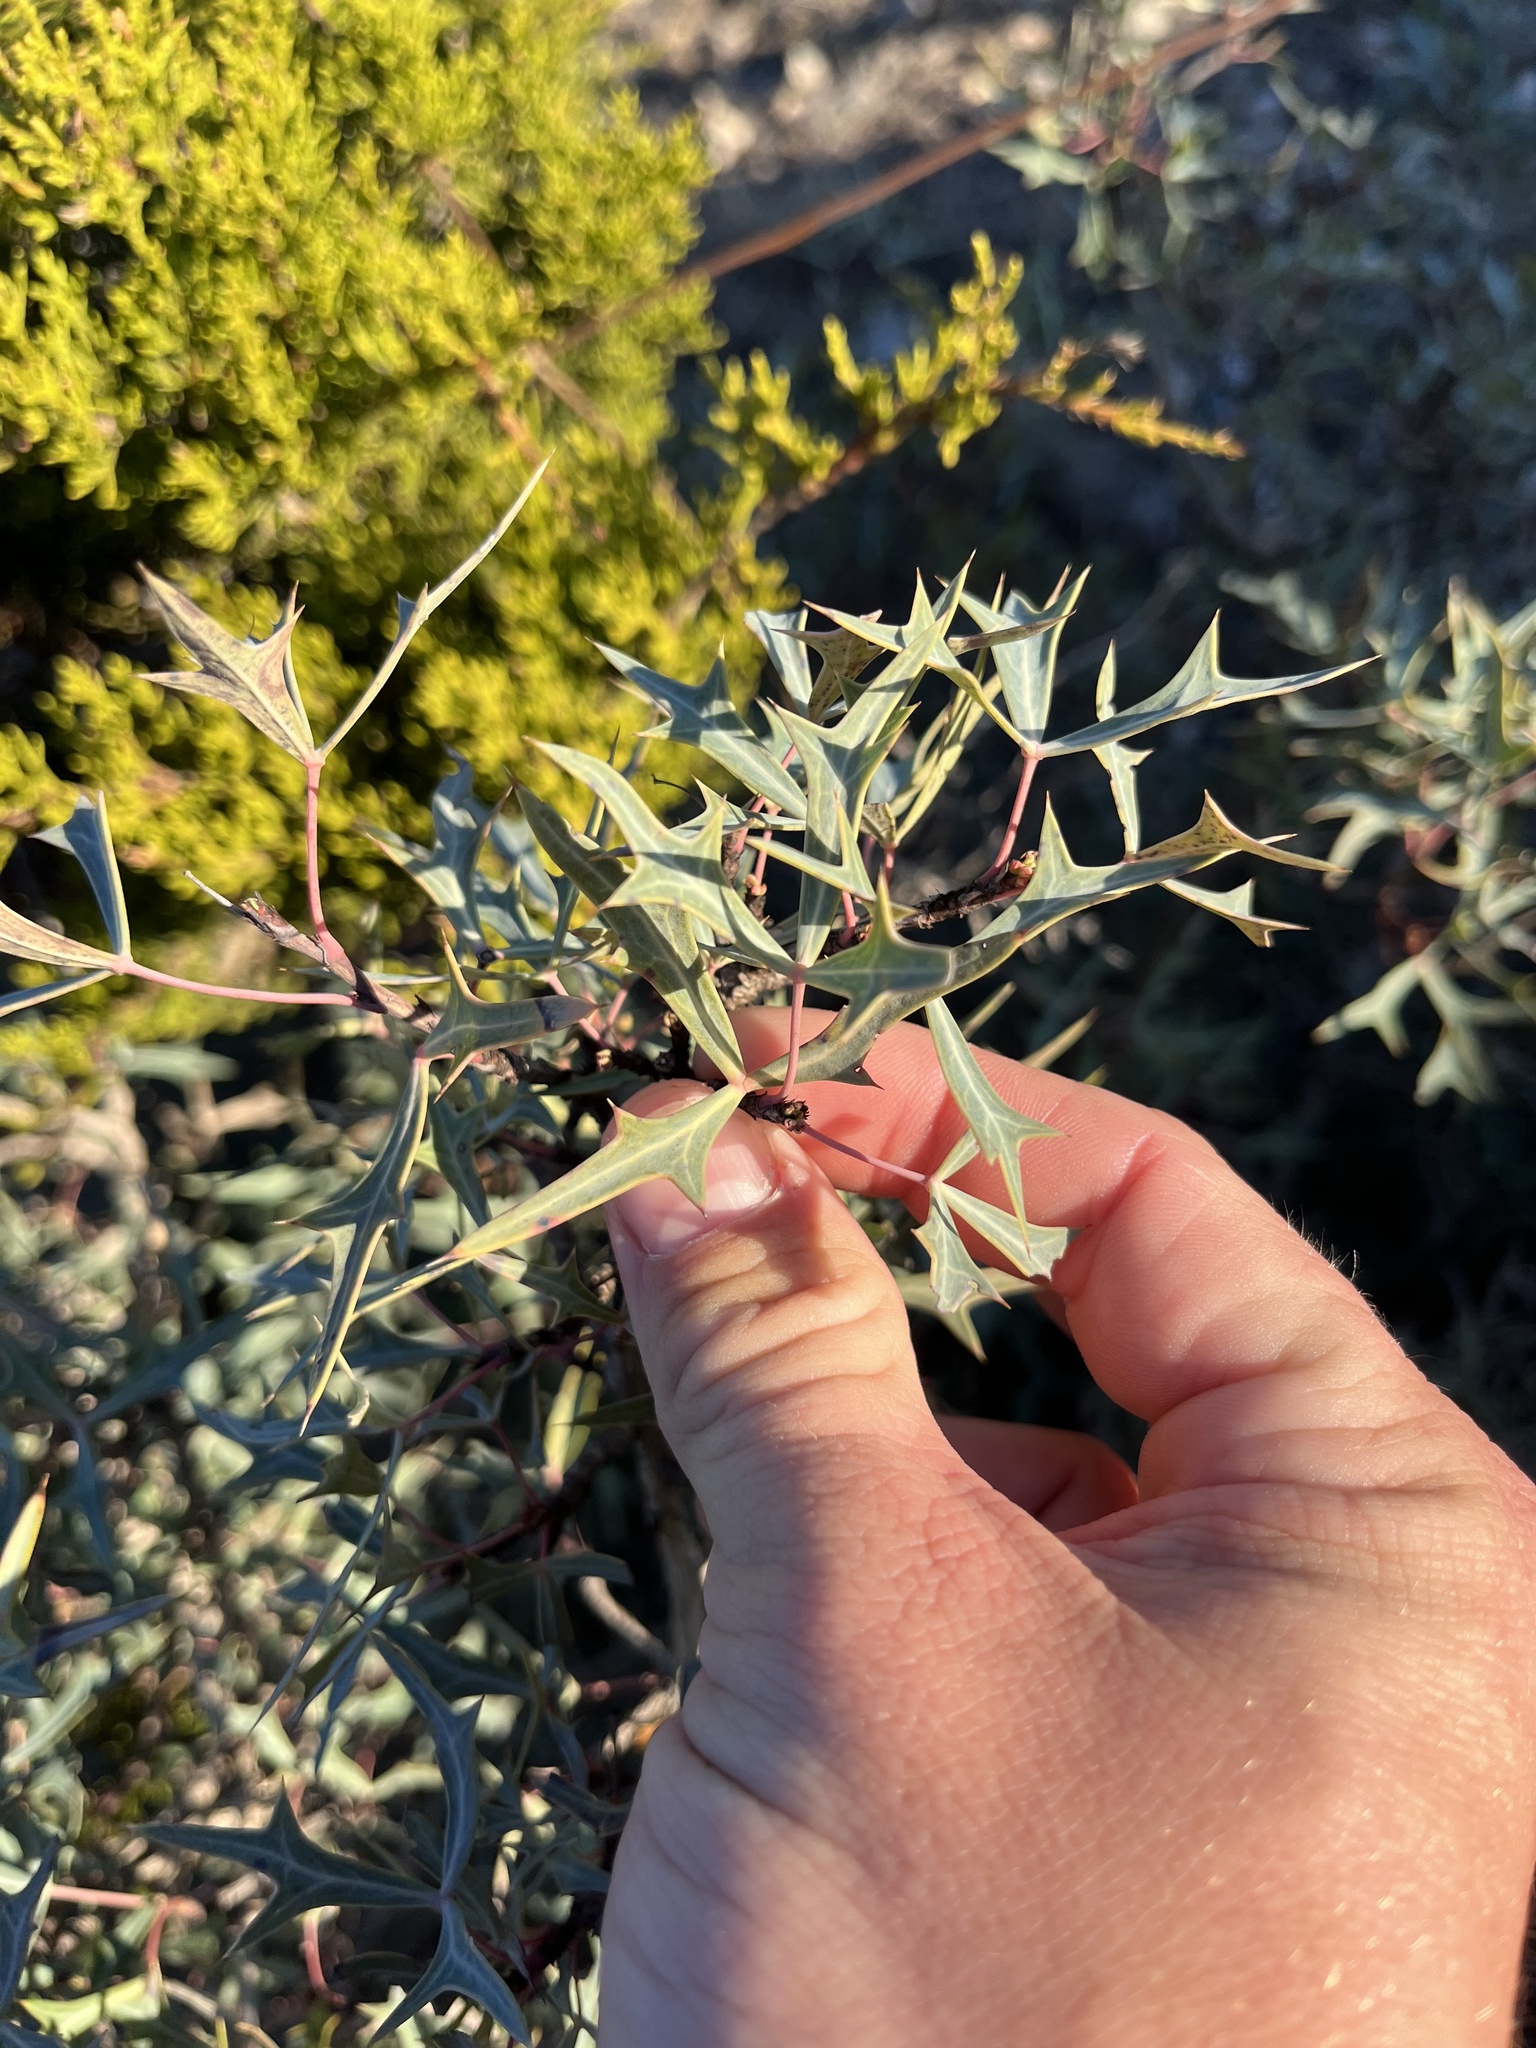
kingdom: Plantae
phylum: Tracheophyta
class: Magnoliopsida
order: Ranunculales
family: Berberidaceae
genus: Alloberberis
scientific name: Alloberberis trifoliolata
